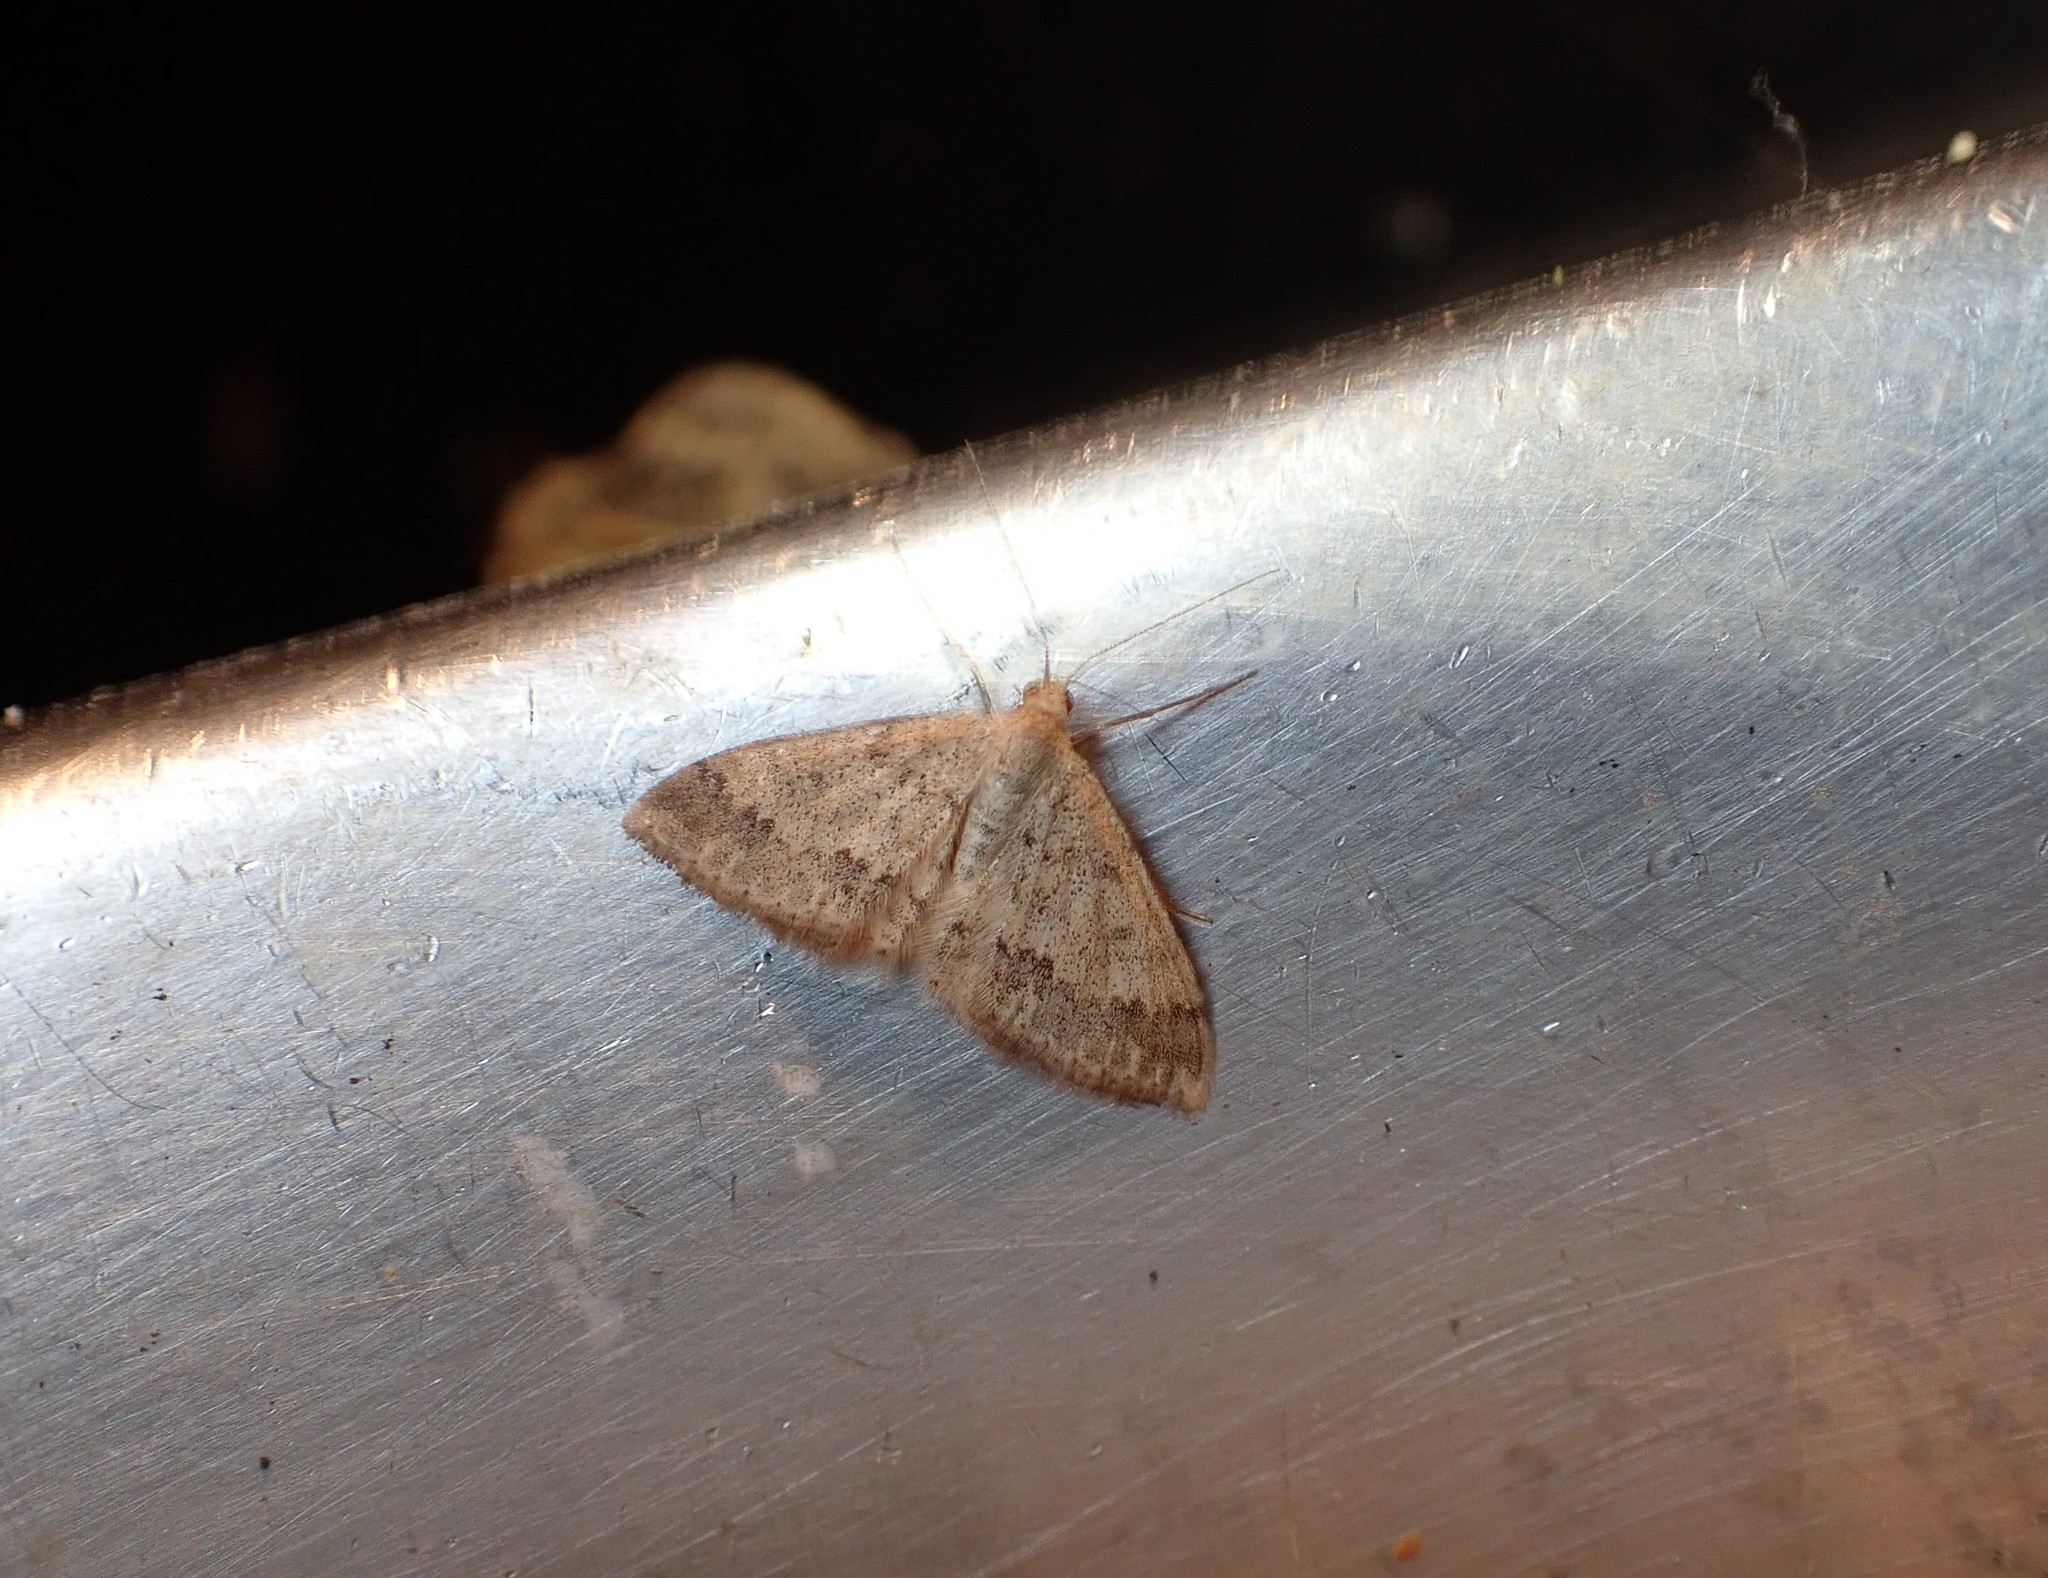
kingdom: Animalia
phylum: Arthropoda
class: Insecta
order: Lepidoptera
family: Geometridae
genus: Scopula
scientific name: Scopula rubraria
